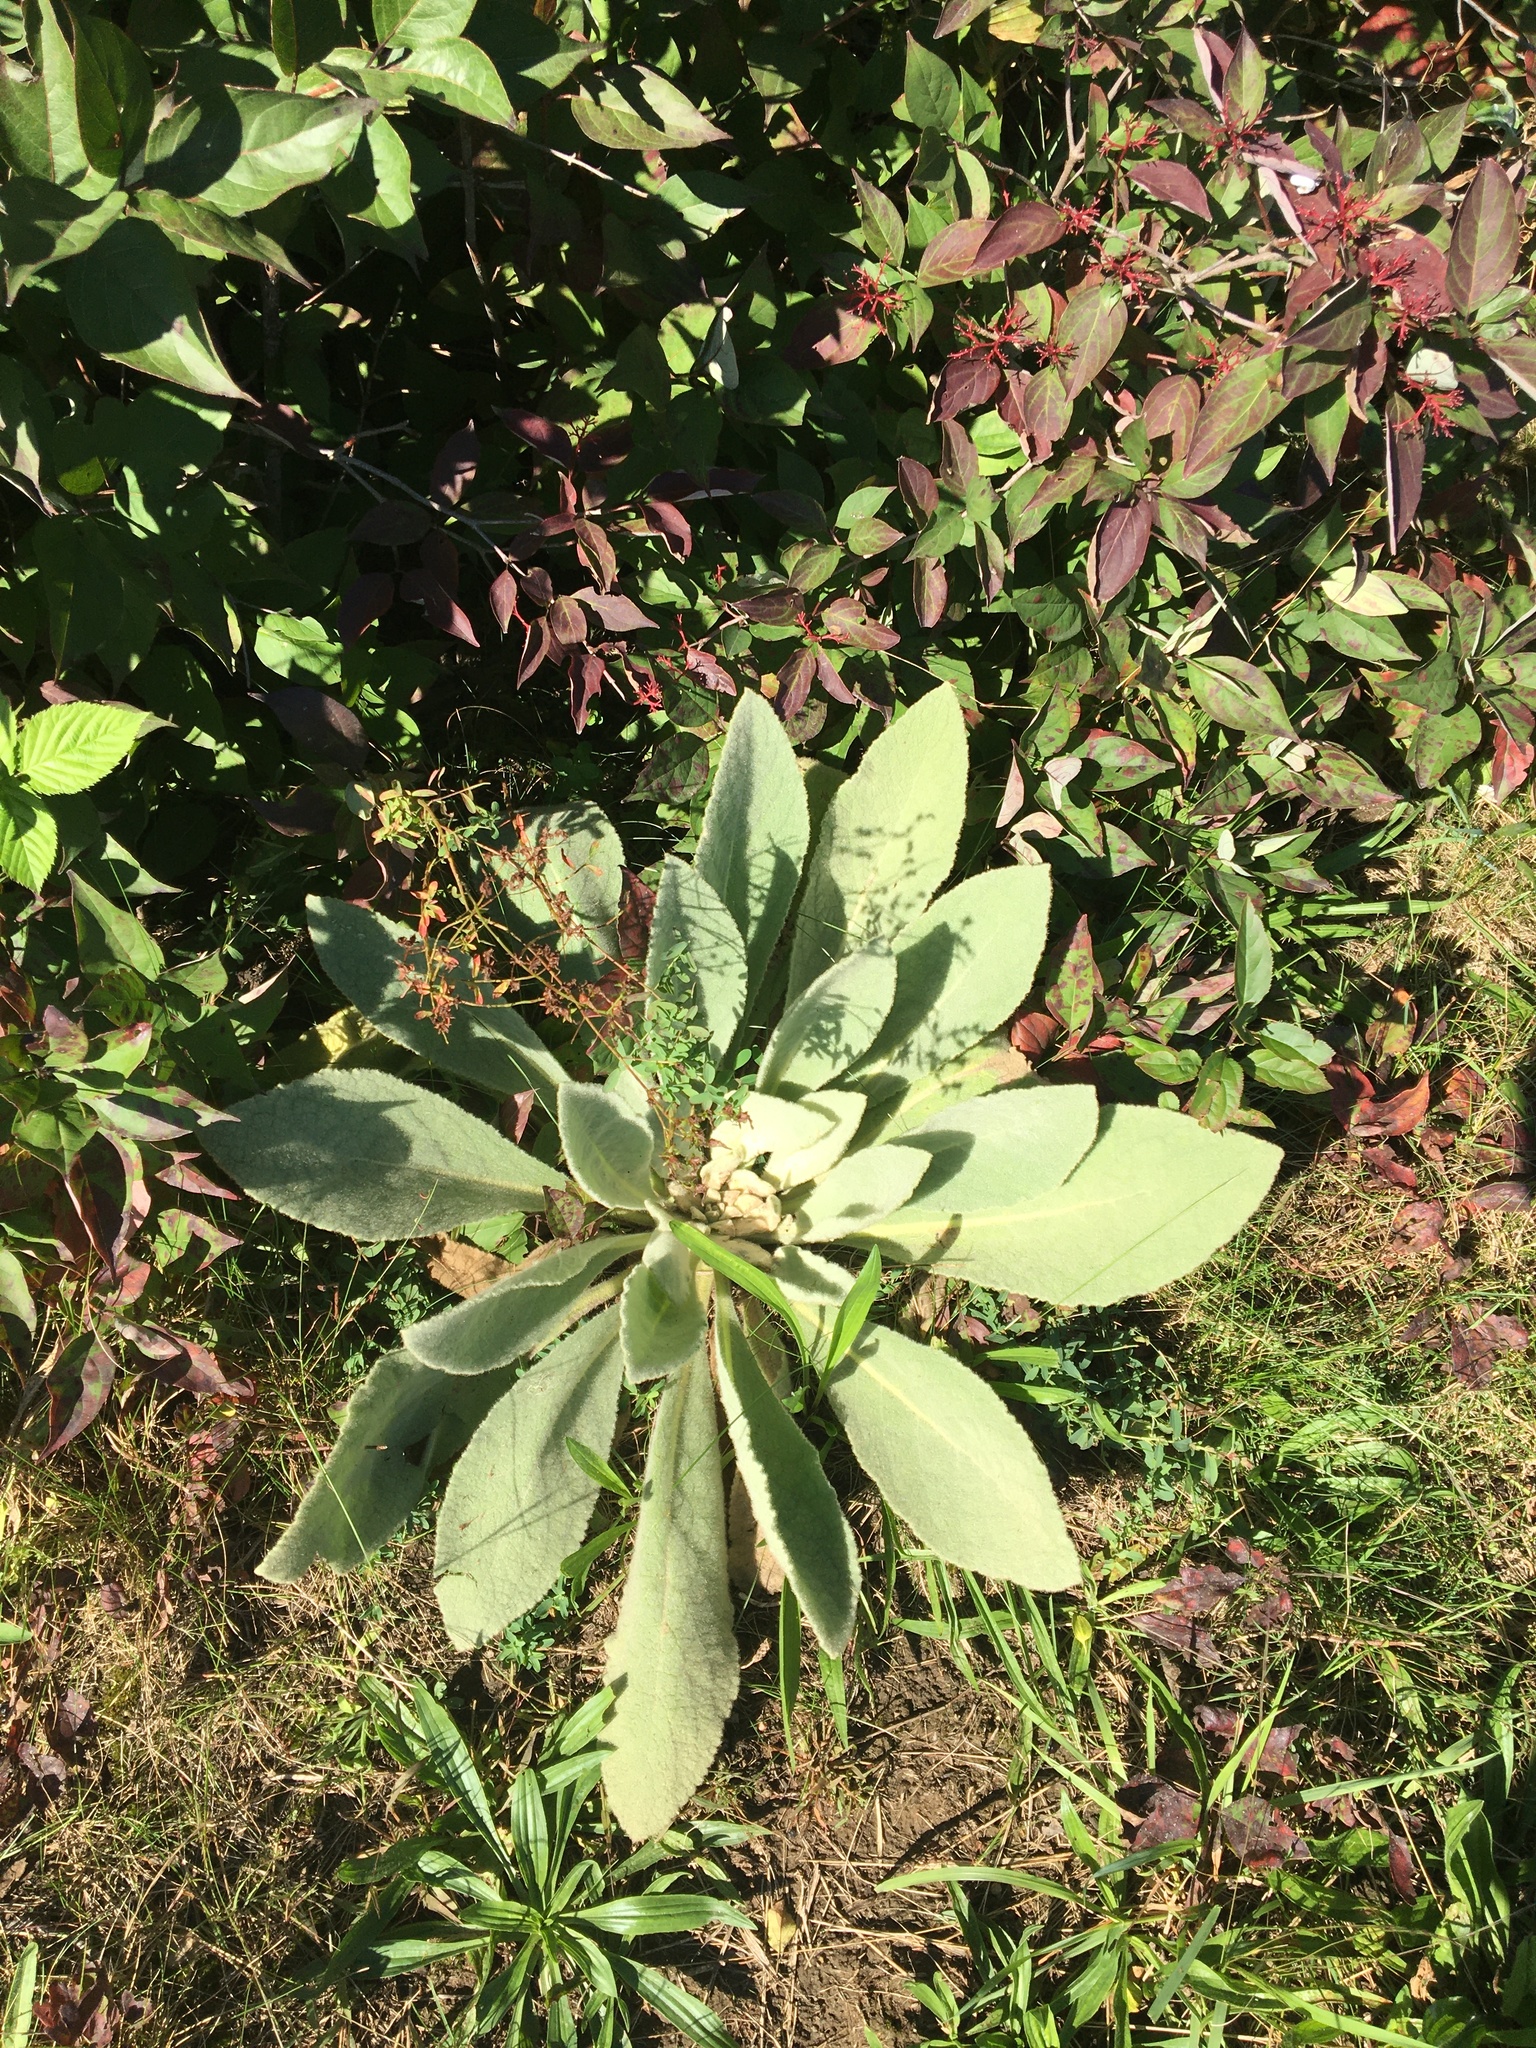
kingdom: Plantae
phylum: Tracheophyta
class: Magnoliopsida
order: Lamiales
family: Scrophulariaceae
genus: Verbascum
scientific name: Verbascum thapsus
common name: Common mullein
